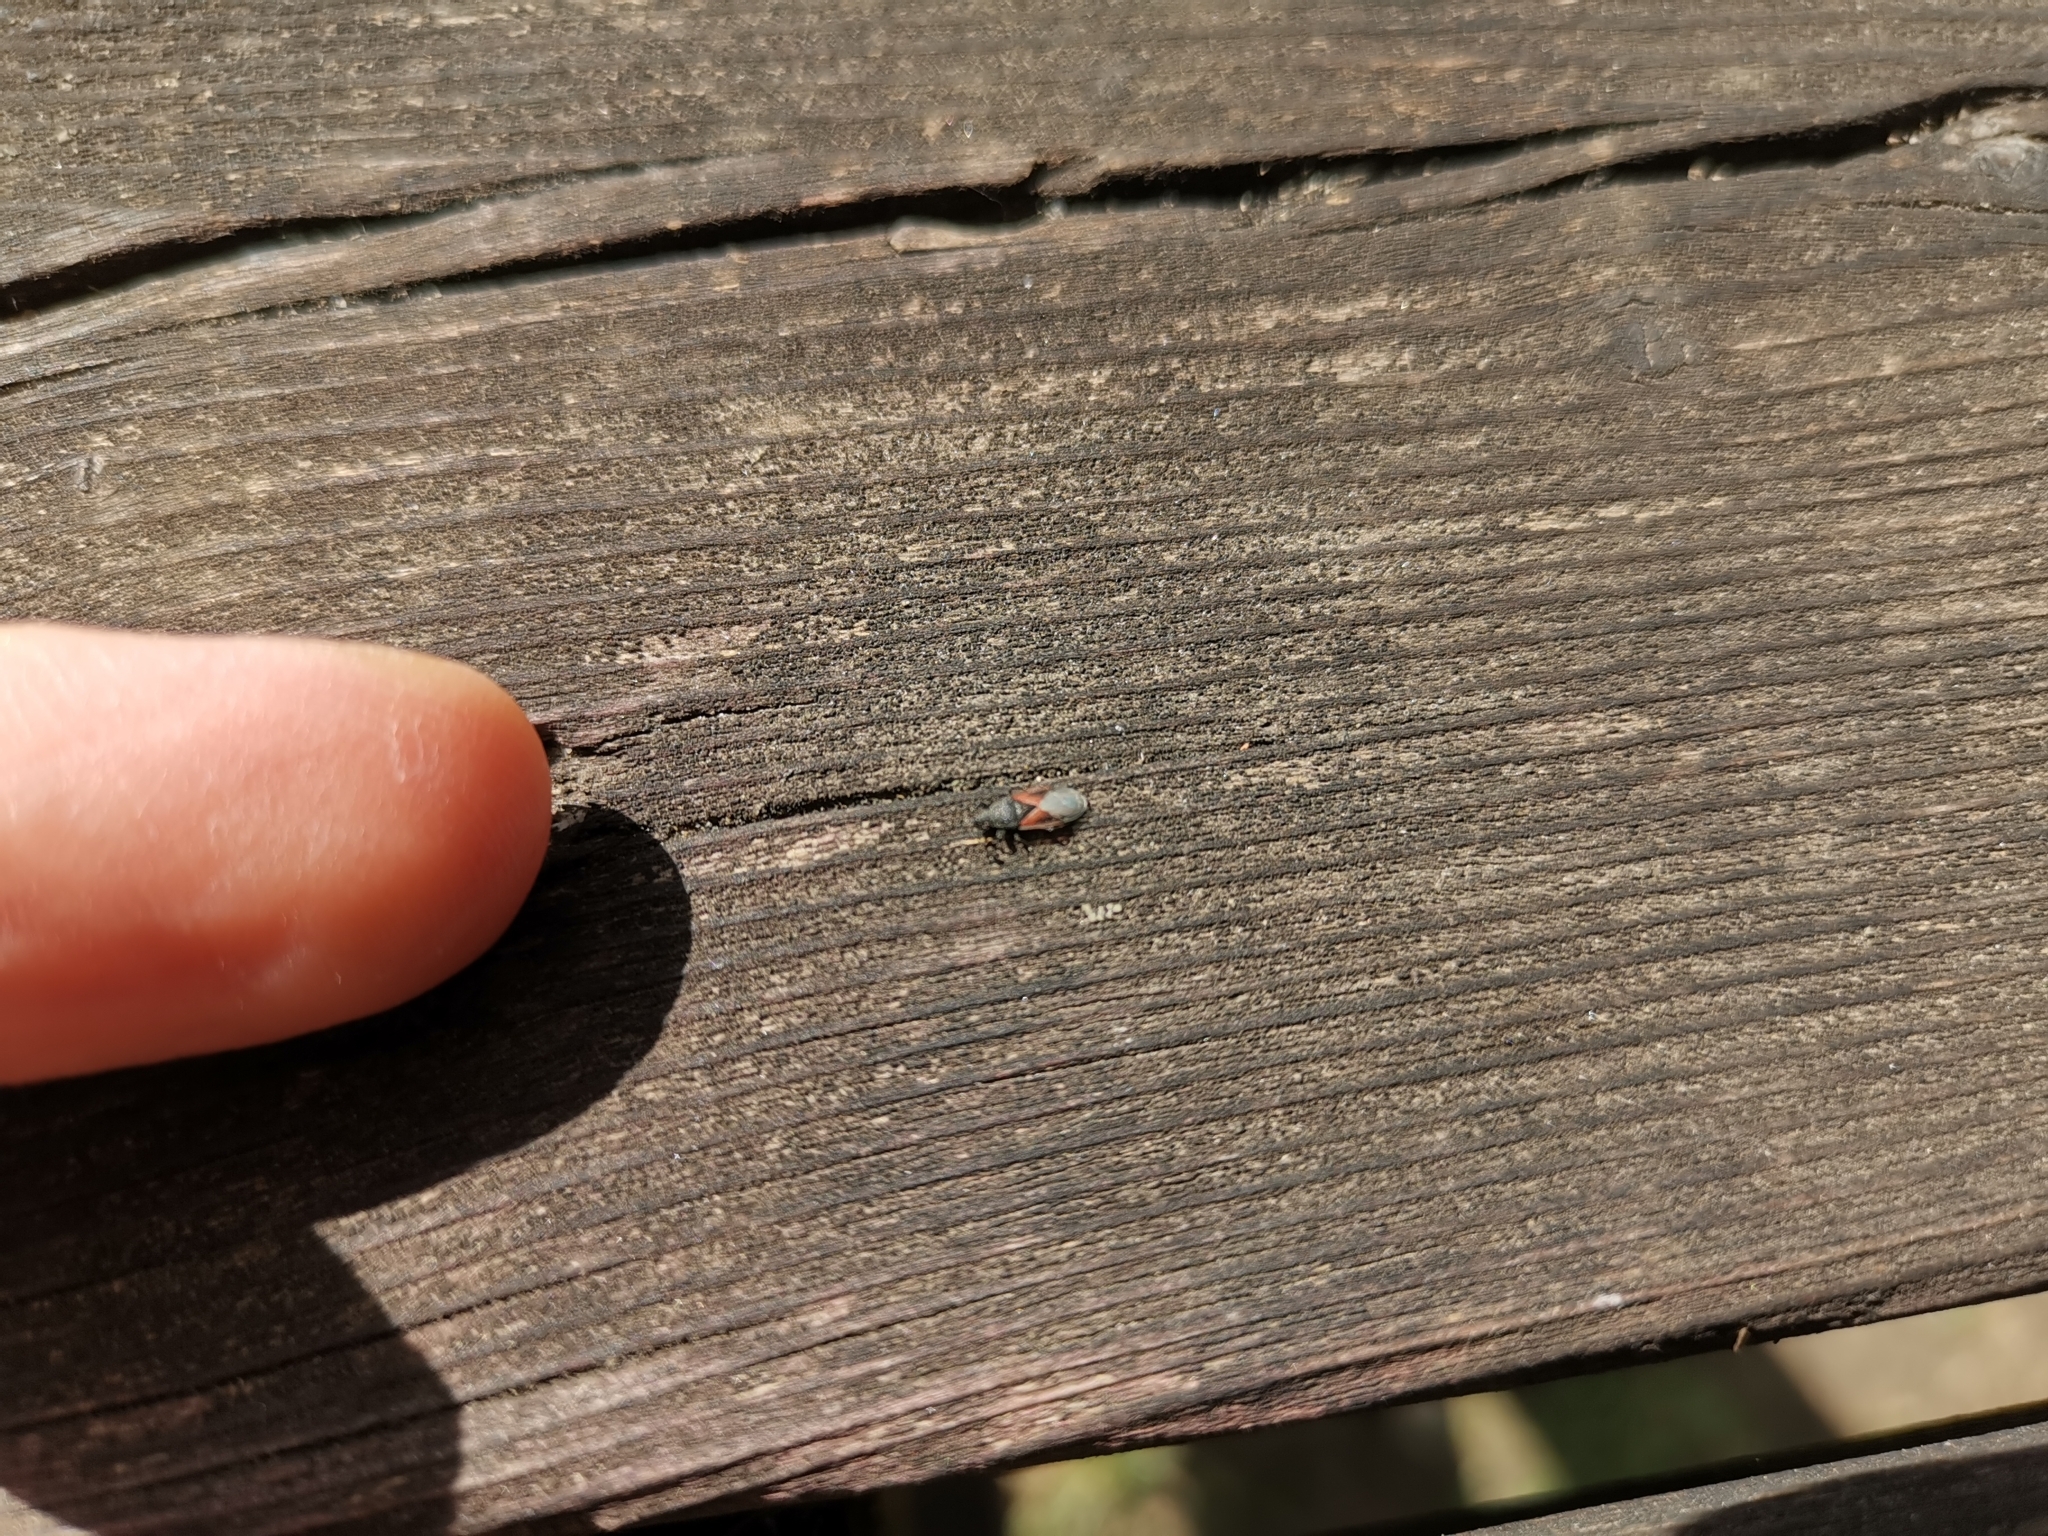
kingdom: Animalia
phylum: Arthropoda
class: Insecta
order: Hemiptera
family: Oxycarenidae
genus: Oxycarenus
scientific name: Oxycarenus lavaterae
